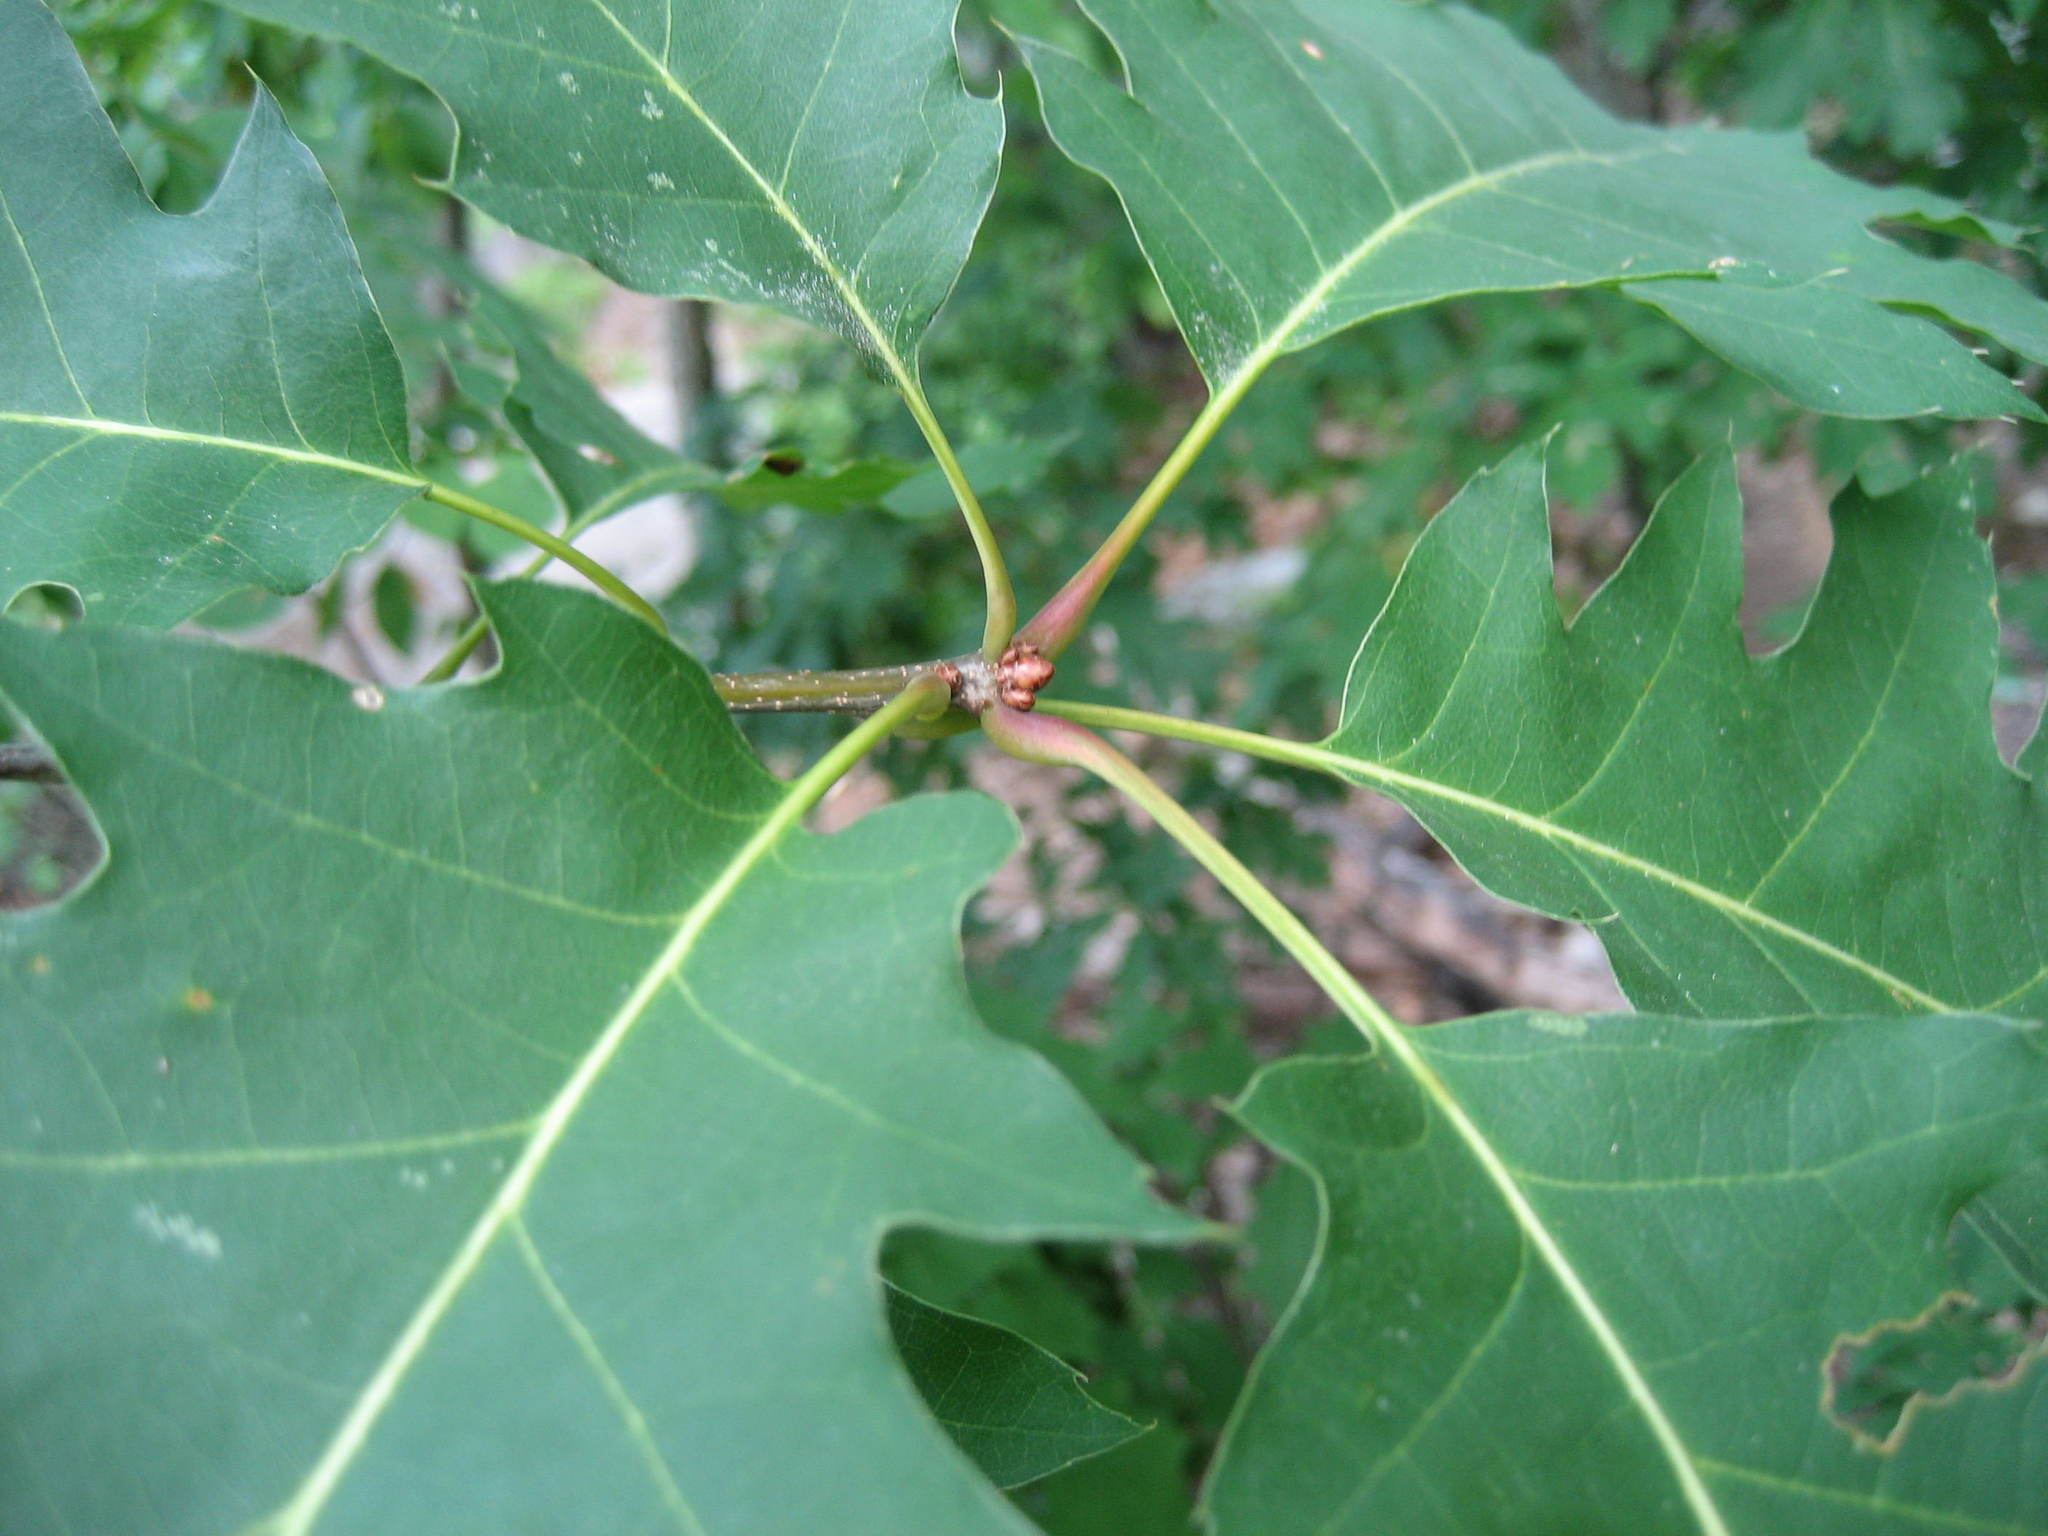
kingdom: Plantae
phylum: Tracheophyta
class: Magnoliopsida
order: Fagales
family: Fagaceae
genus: Quercus
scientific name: Quercus rubra
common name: Red oak
